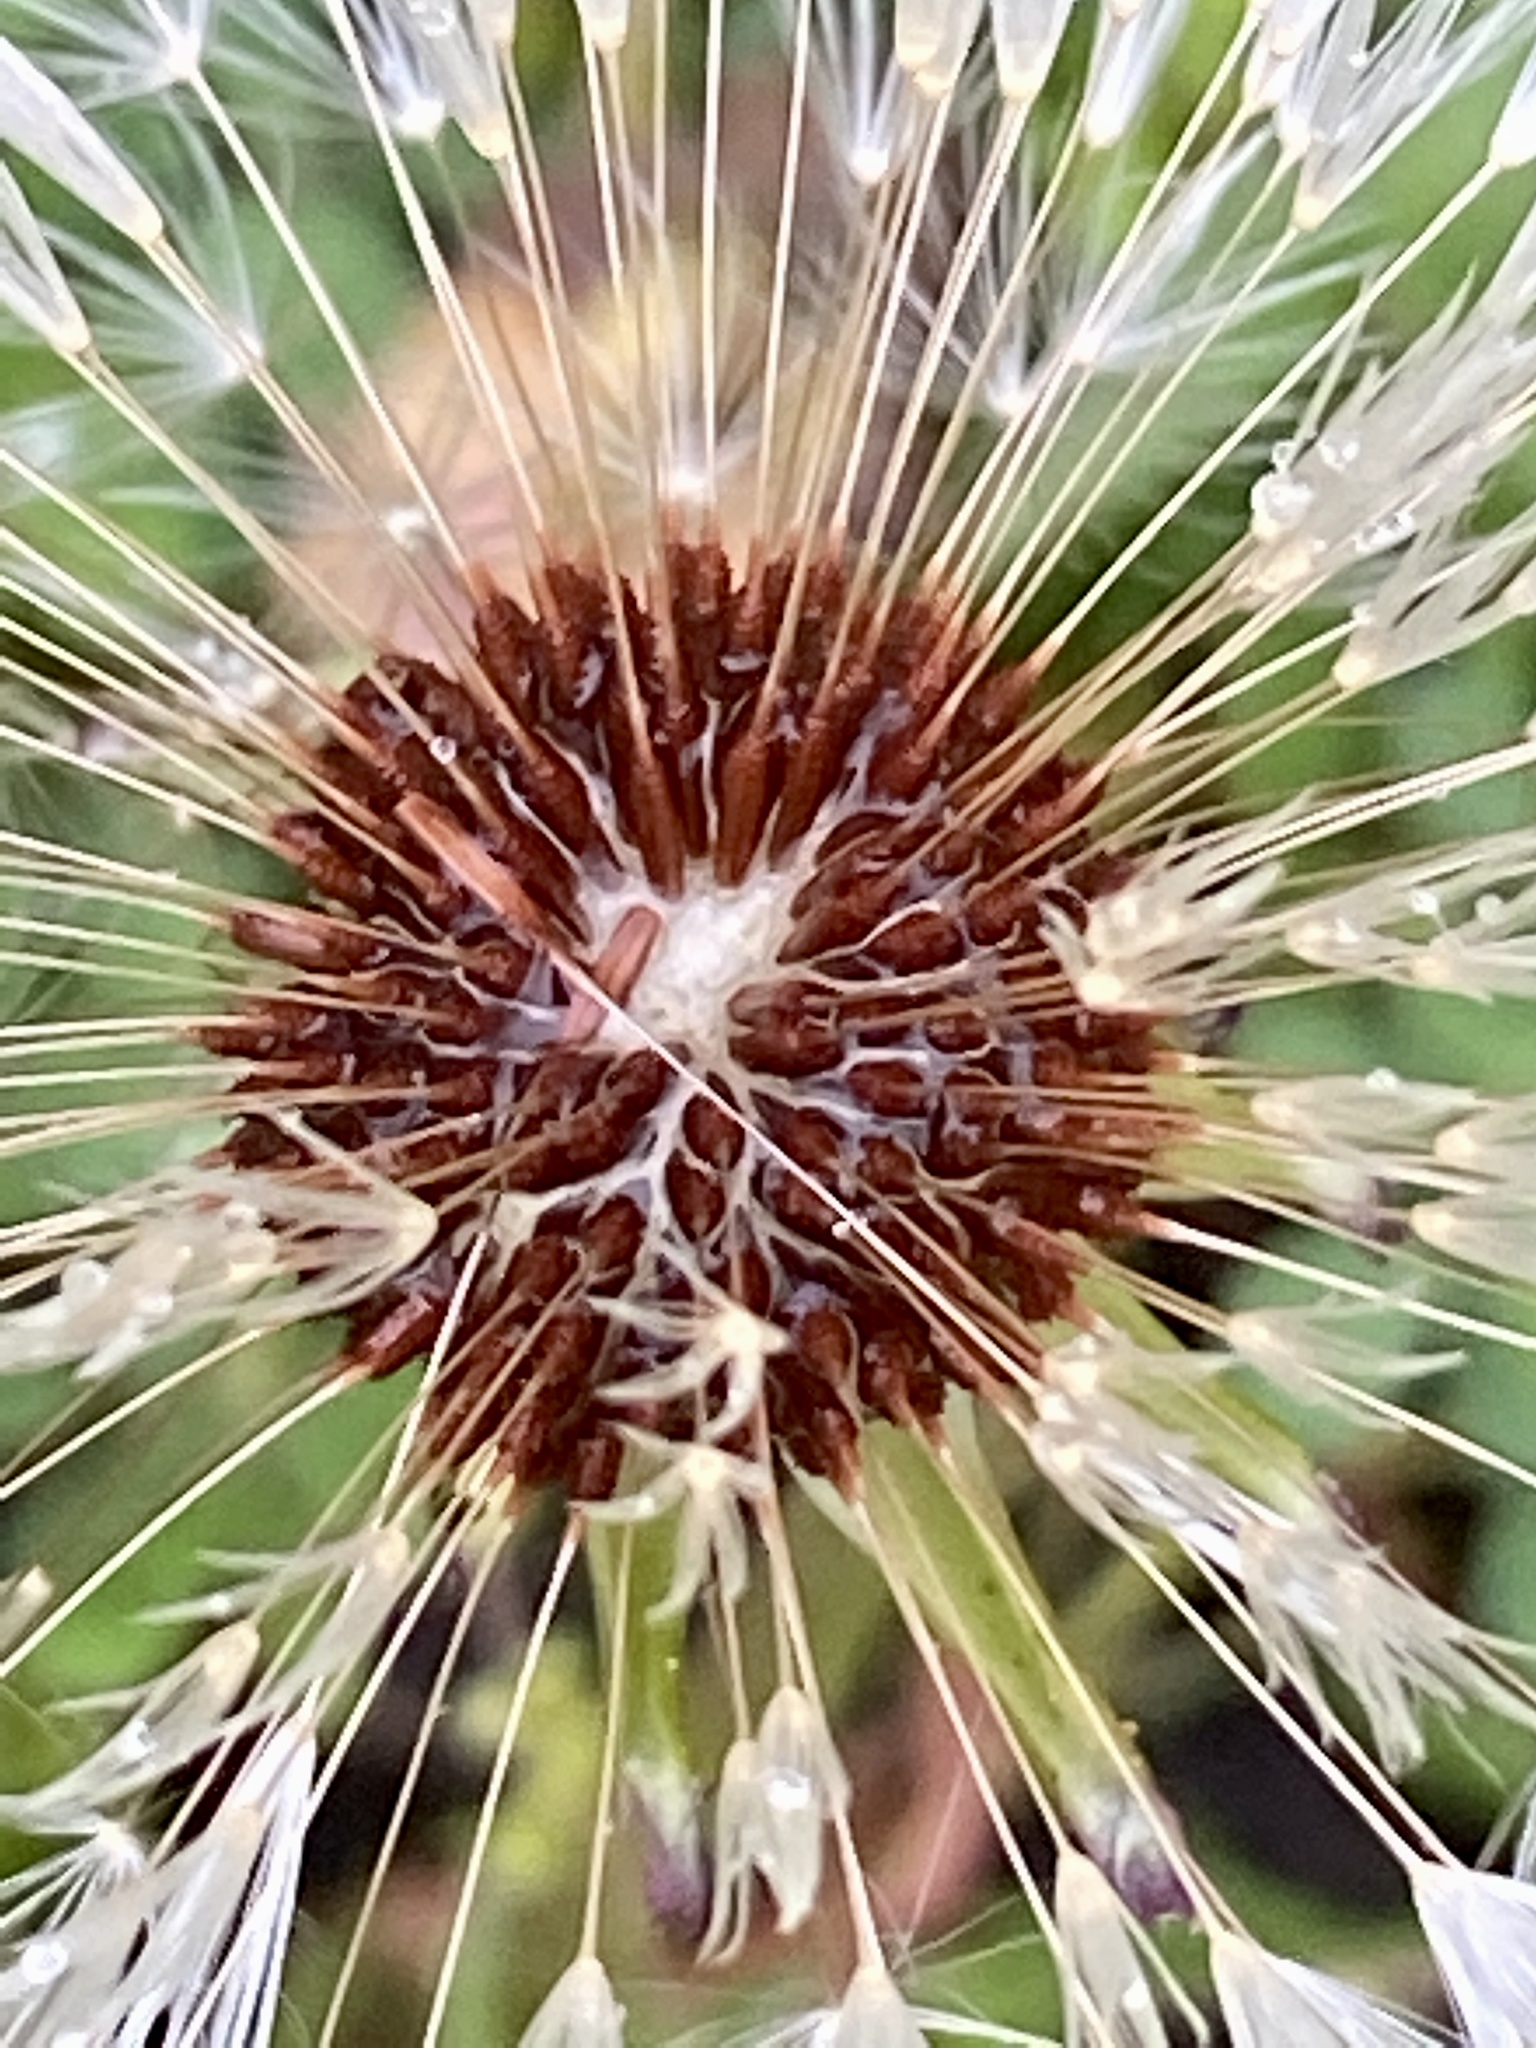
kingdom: Plantae
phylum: Tracheophyta
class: Magnoliopsida
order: Asterales
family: Asteraceae
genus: Taraxacum
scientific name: Taraxacum erythrospermum
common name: Rock dandelion
